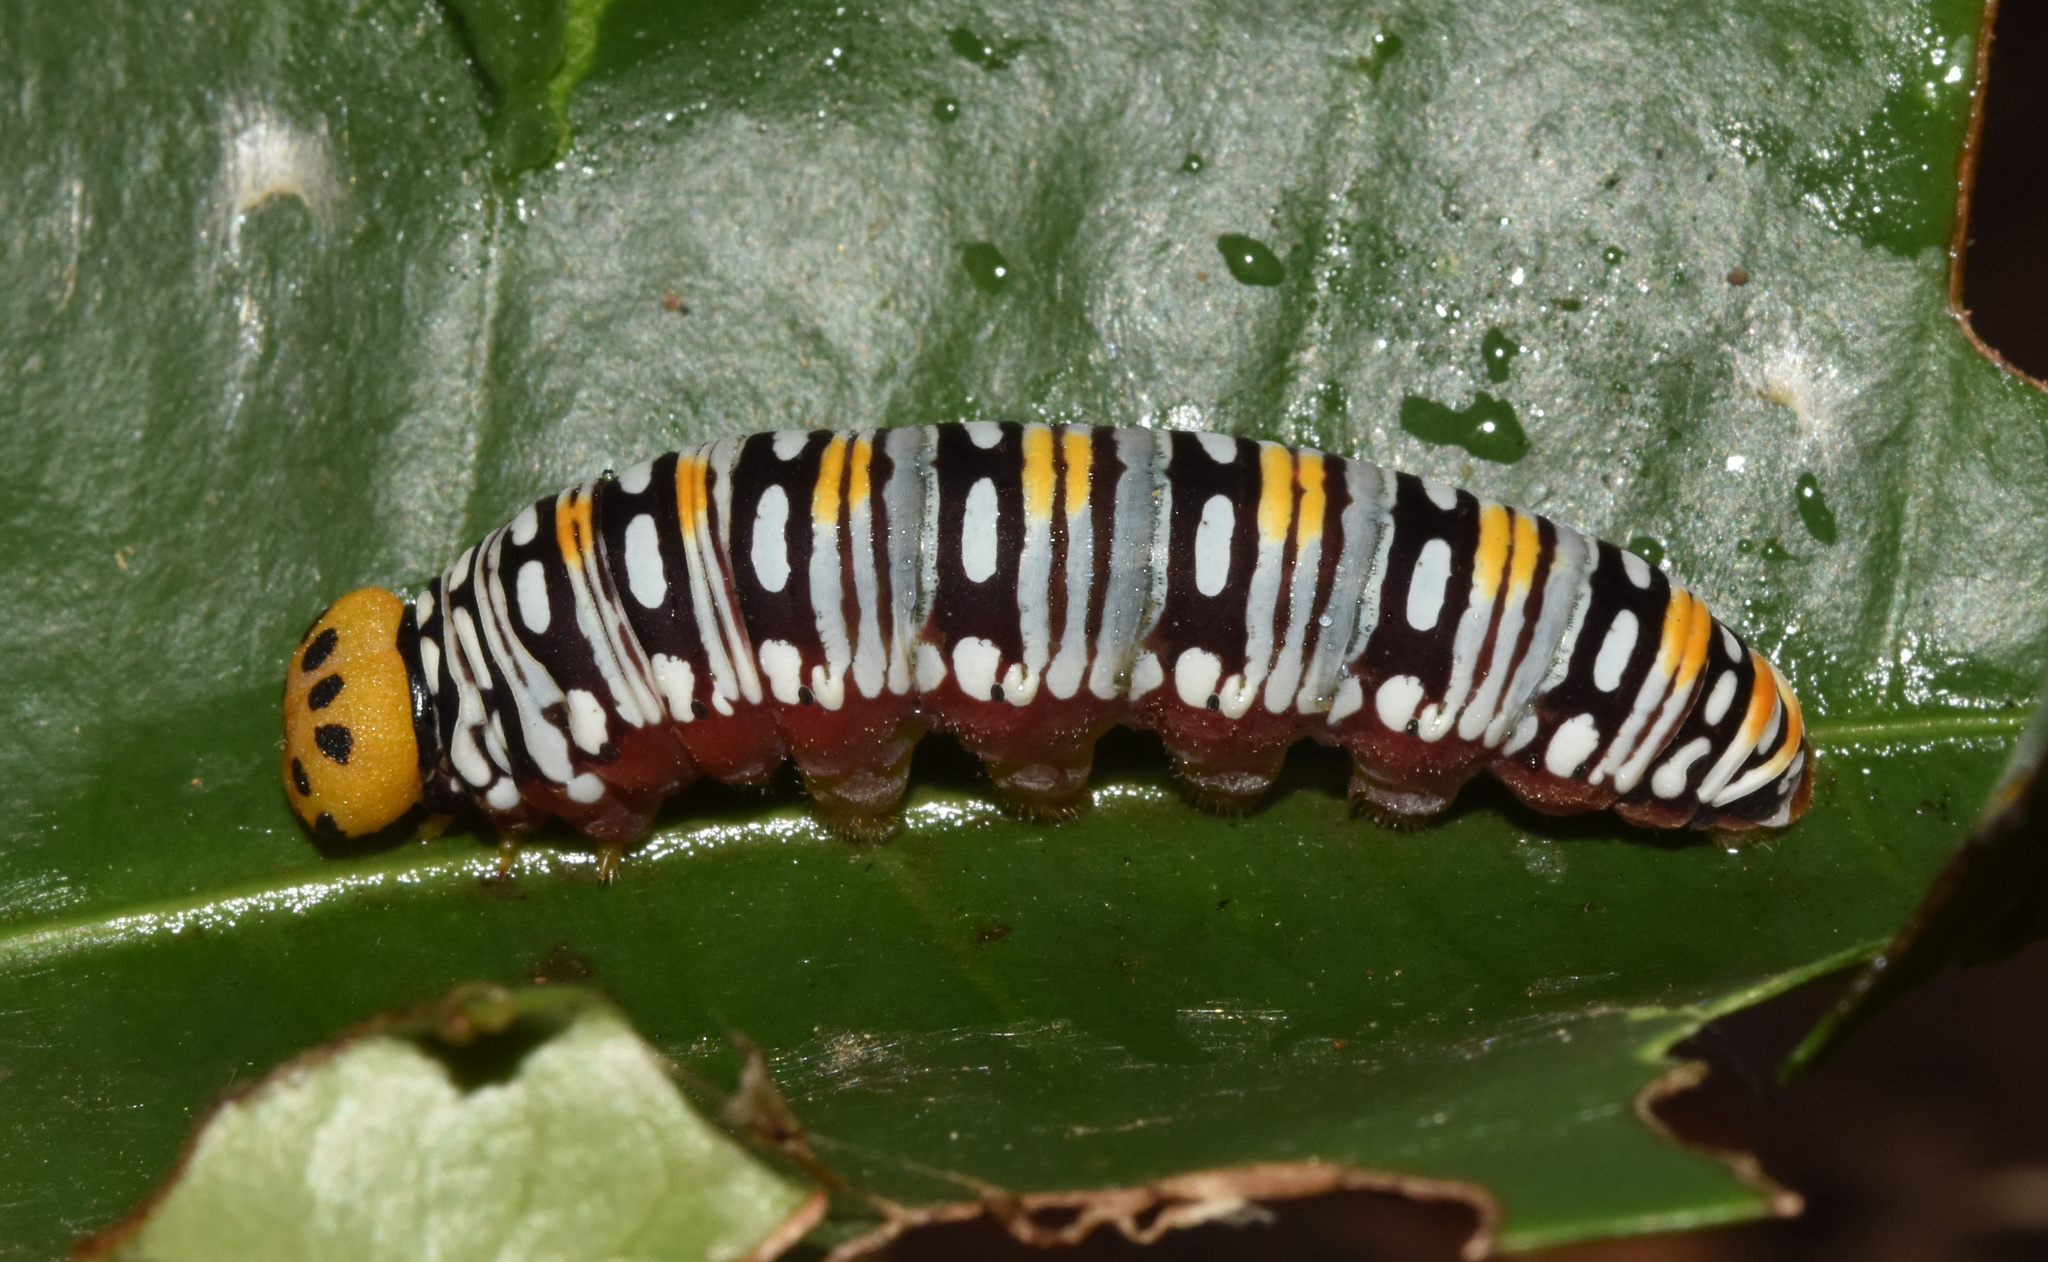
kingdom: Animalia
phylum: Arthropoda
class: Insecta
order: Lepidoptera
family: Hesperiidae
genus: Coeliades
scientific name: Coeliades keithloa
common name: Red-tab policeman
